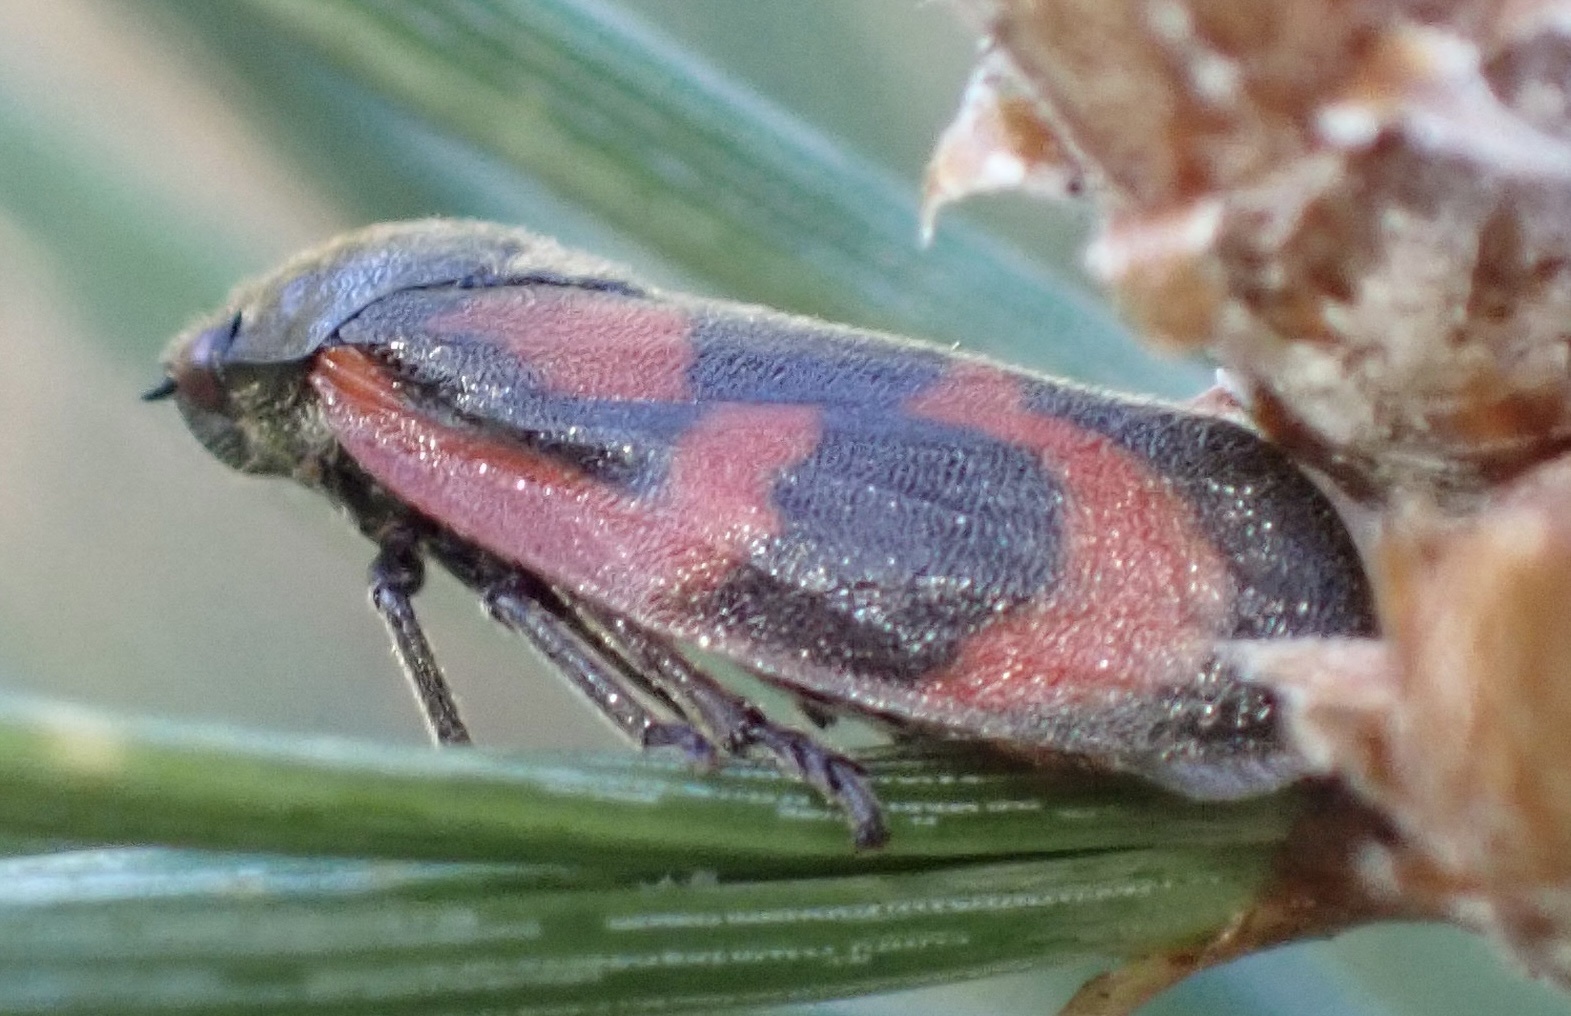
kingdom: Animalia
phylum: Arthropoda
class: Insecta
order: Hemiptera
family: Cercopidae
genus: Haematoloma
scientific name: Haematoloma dorsata
